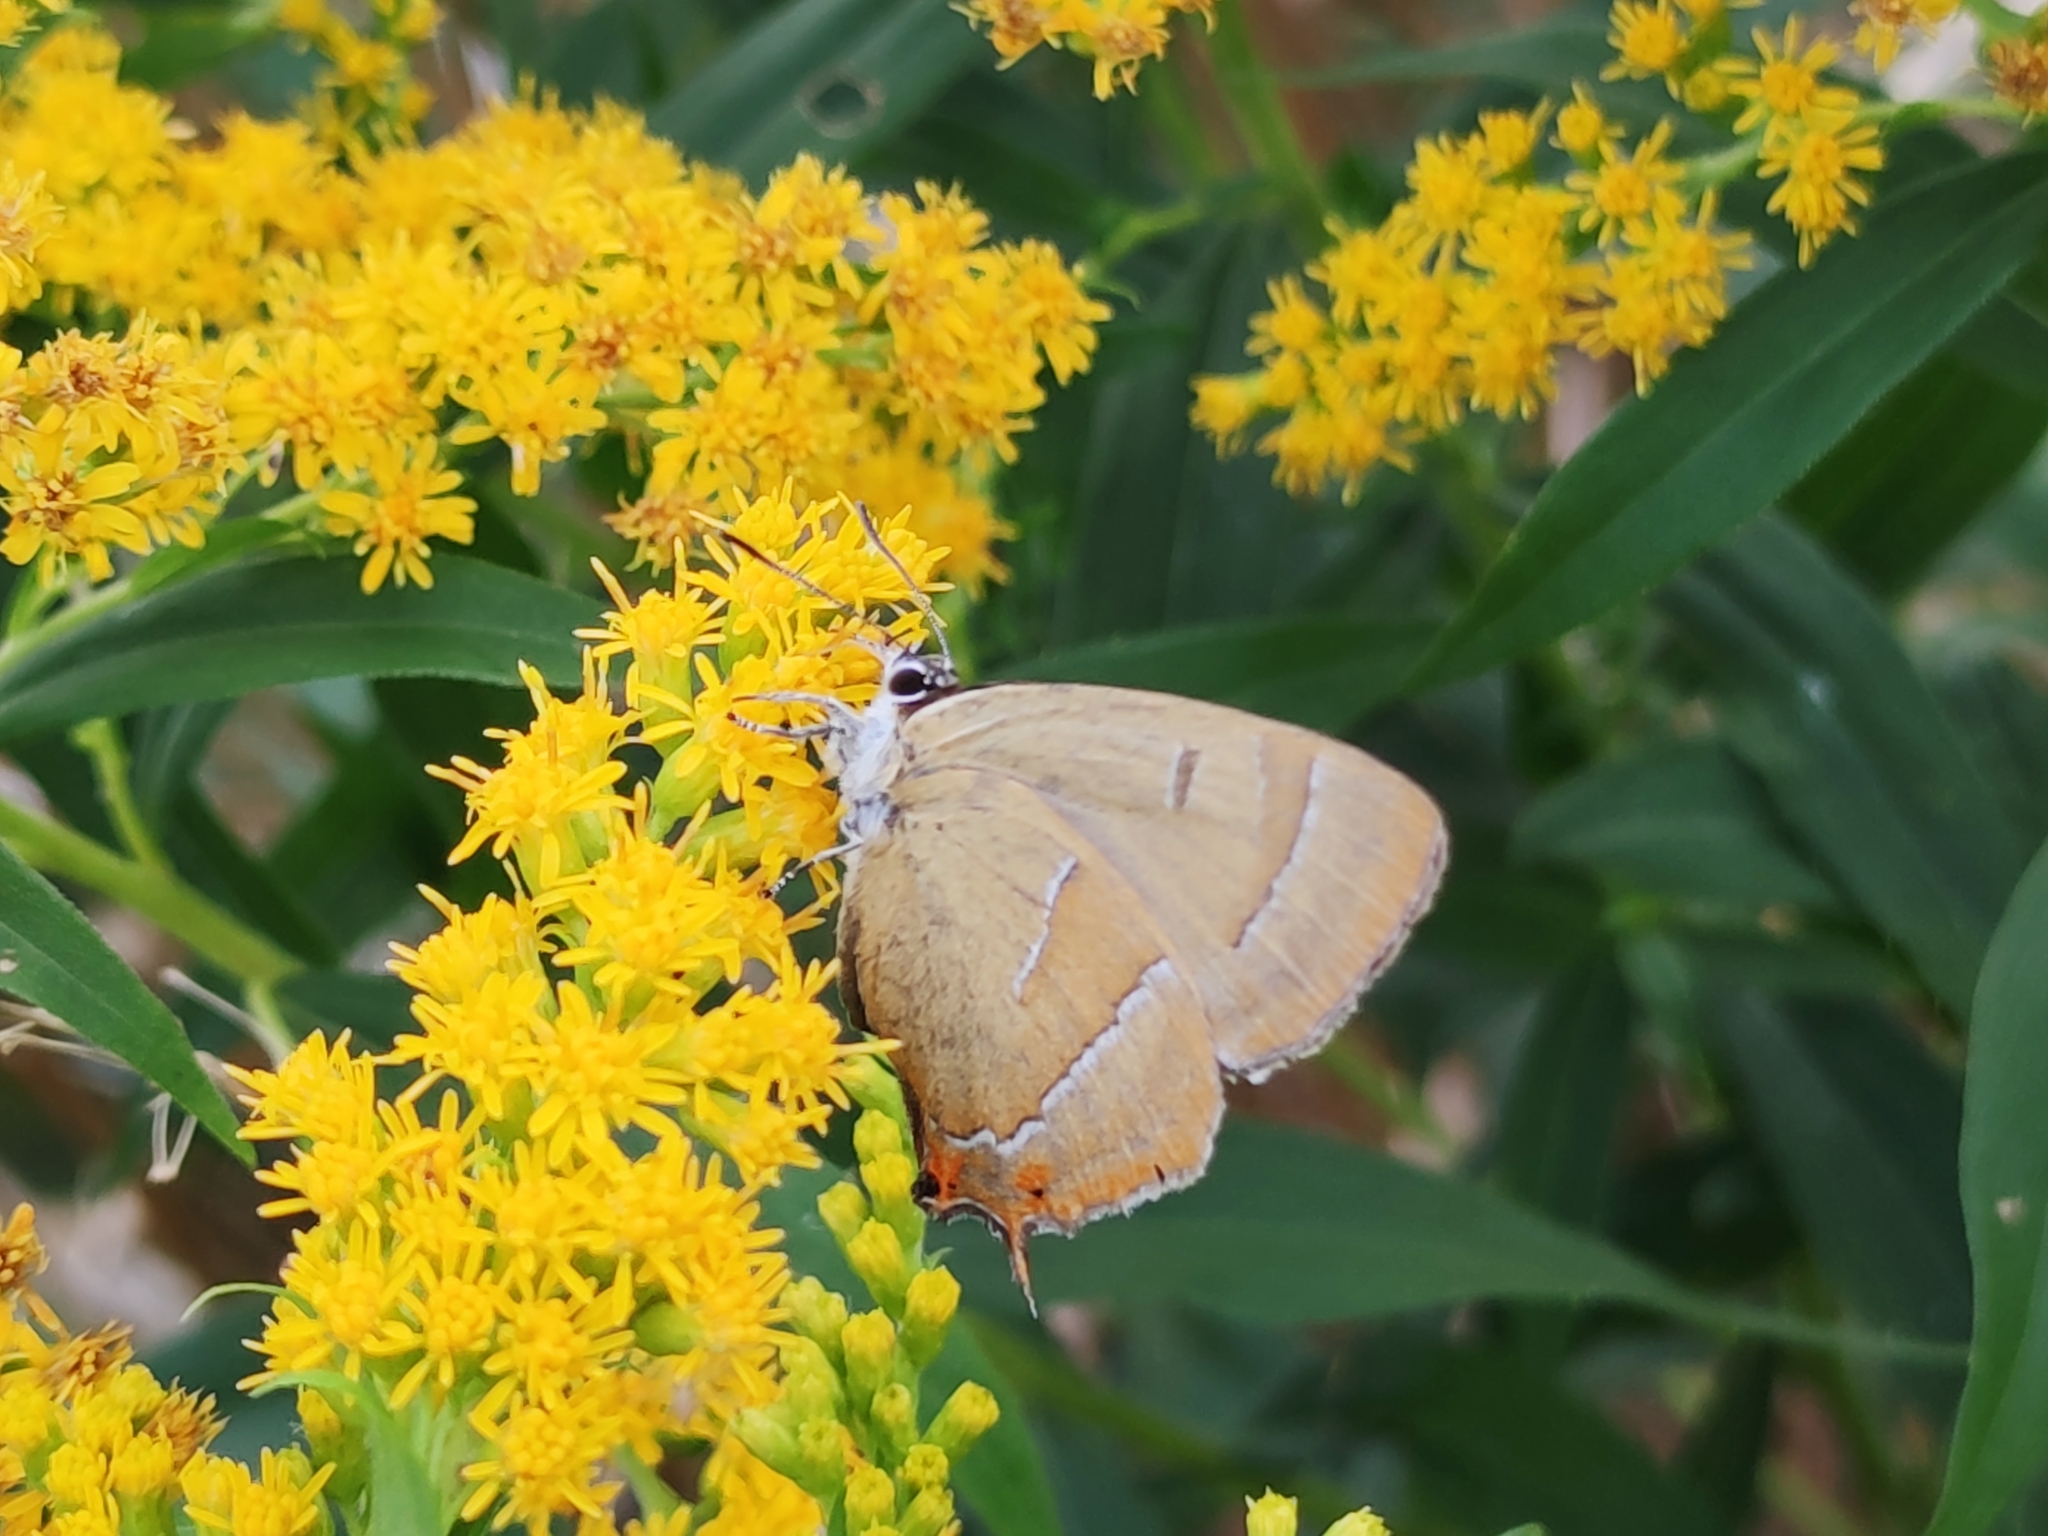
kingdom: Animalia
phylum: Arthropoda
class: Insecta
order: Lepidoptera
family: Lycaenidae
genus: Thecla
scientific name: Thecla betulae
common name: Brown hairstreak
